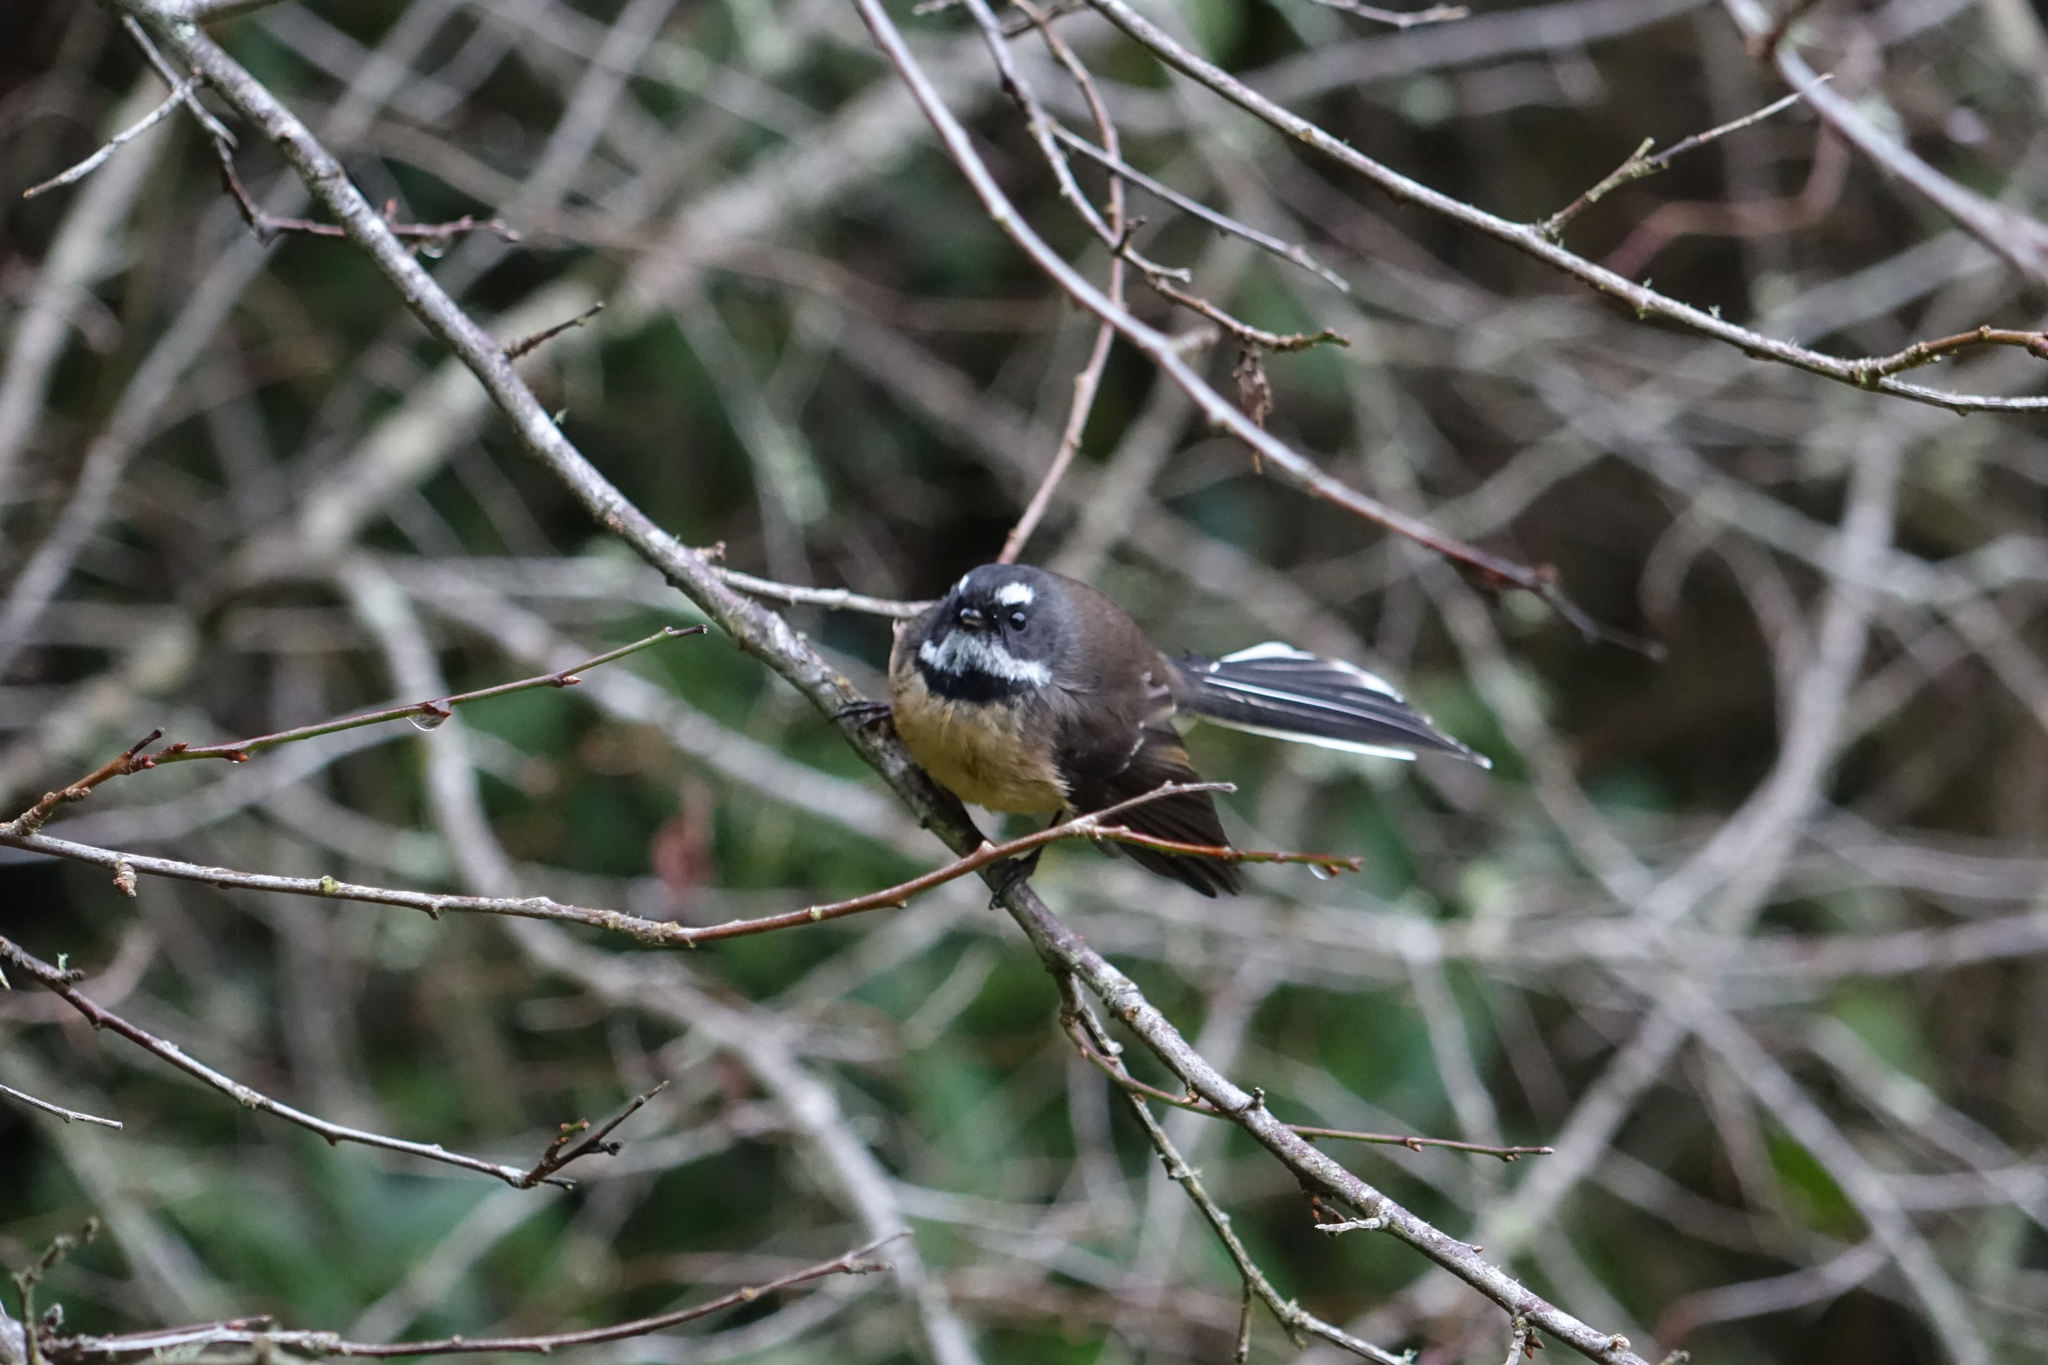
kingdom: Animalia
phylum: Chordata
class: Aves
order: Passeriformes
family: Rhipiduridae
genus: Rhipidura
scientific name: Rhipidura fuliginosa
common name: New zealand fantail
